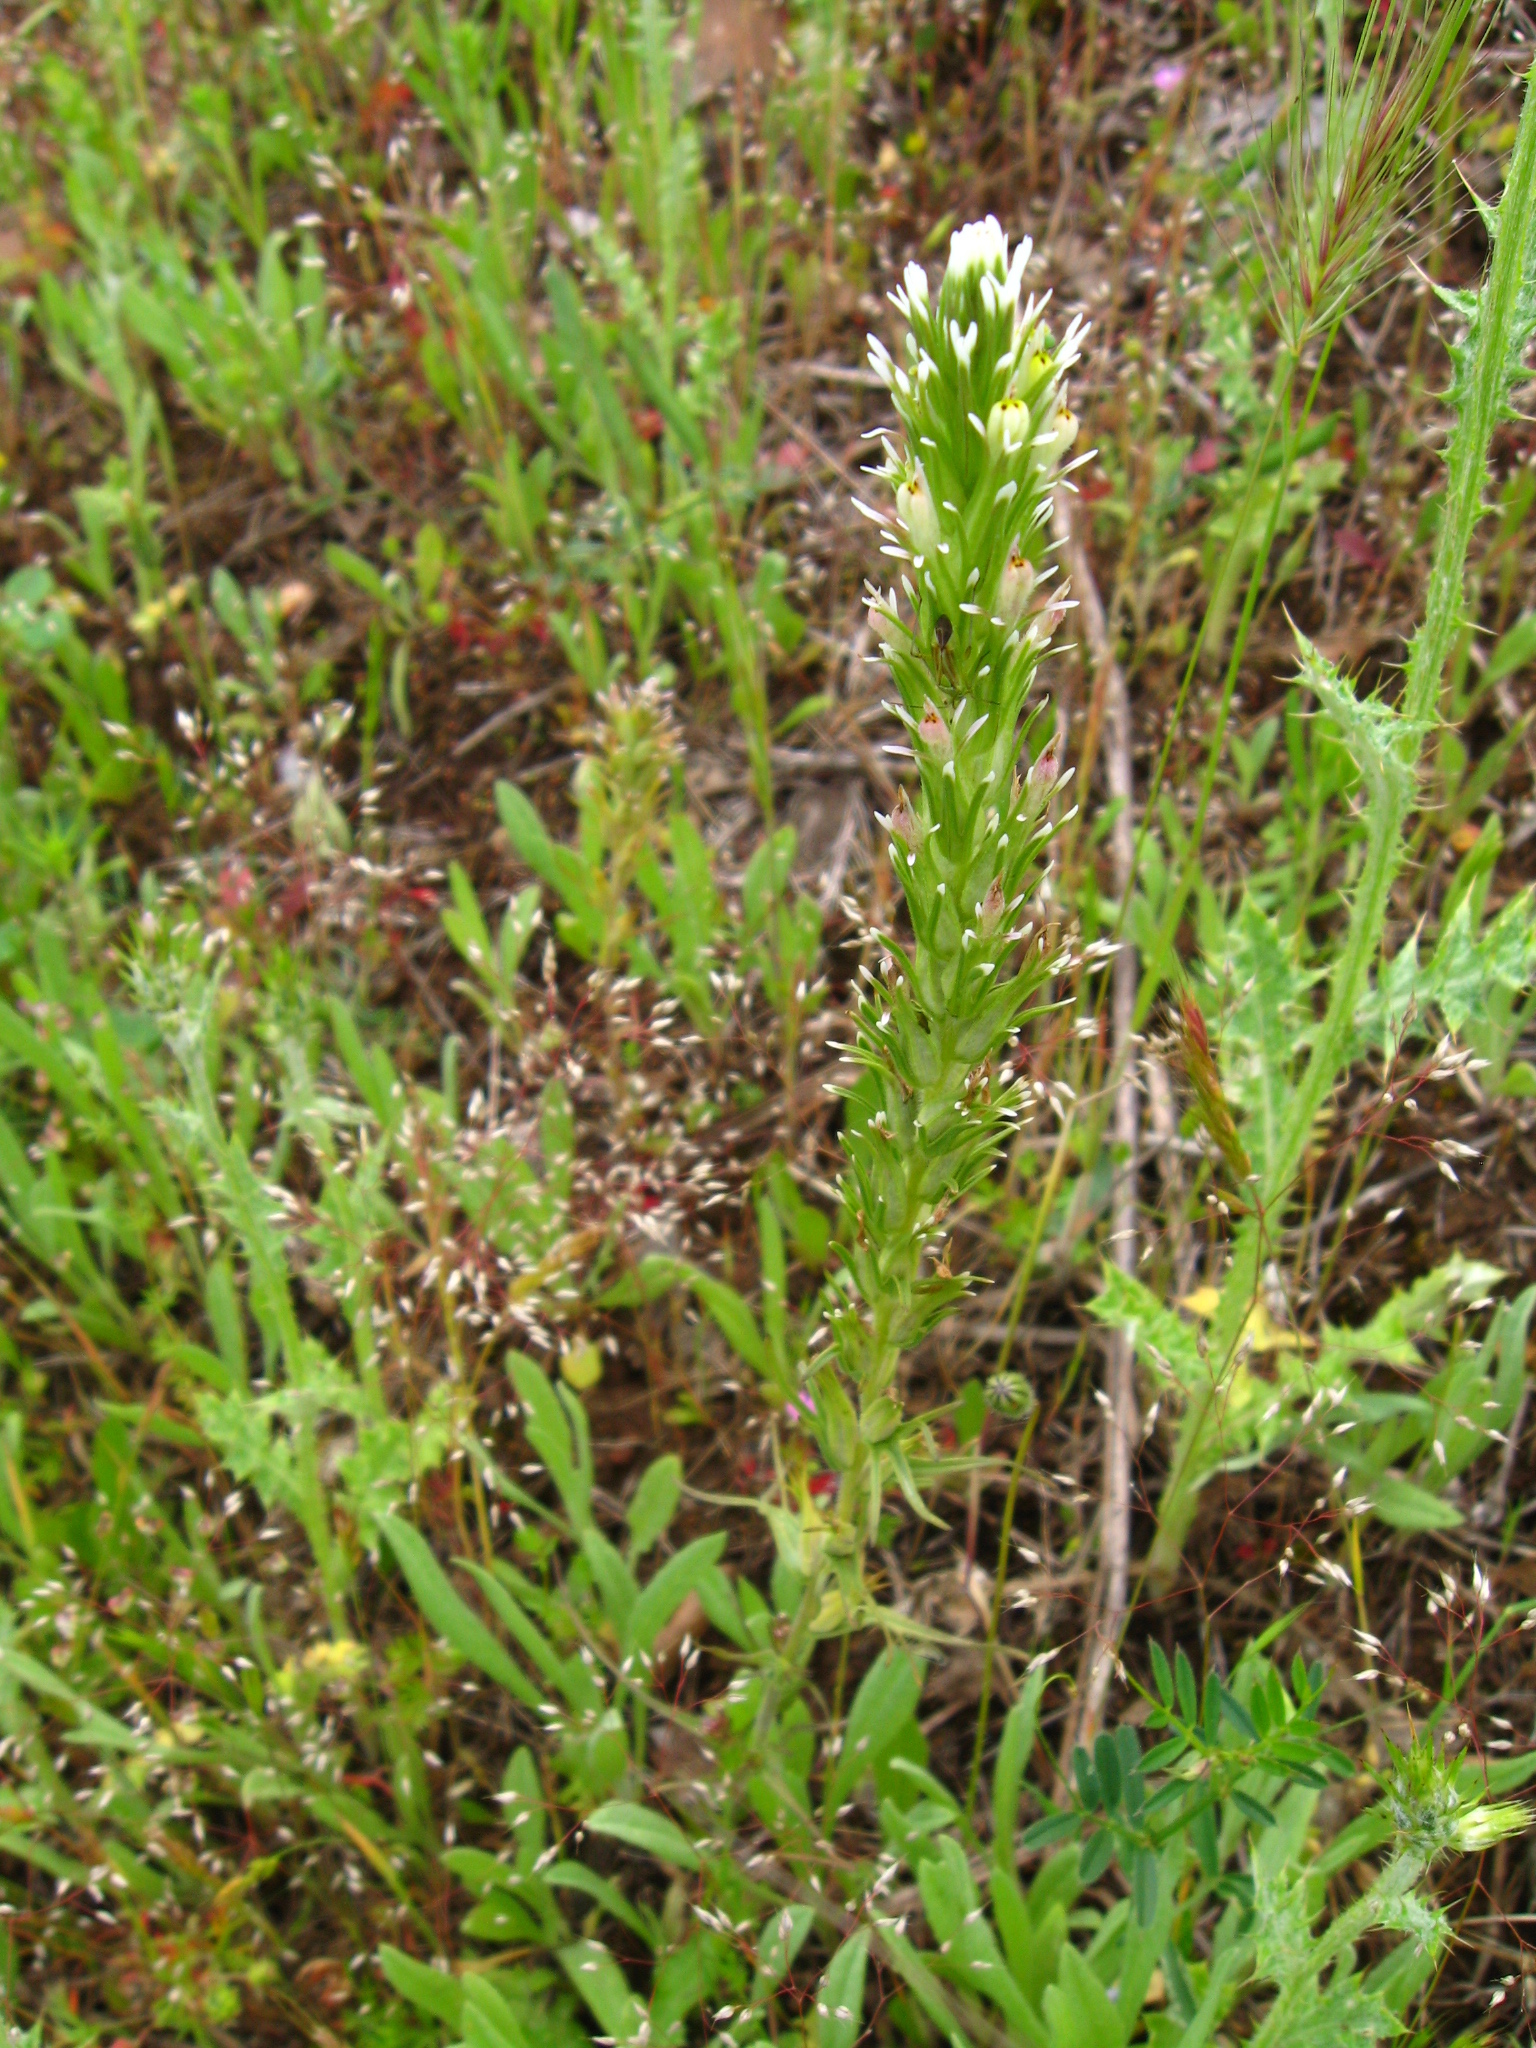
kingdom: Plantae
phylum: Tracheophyta
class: Magnoliopsida
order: Lamiales
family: Orobanchaceae
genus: Castilleja
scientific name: Castilleja attenuata
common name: Valley tassels
